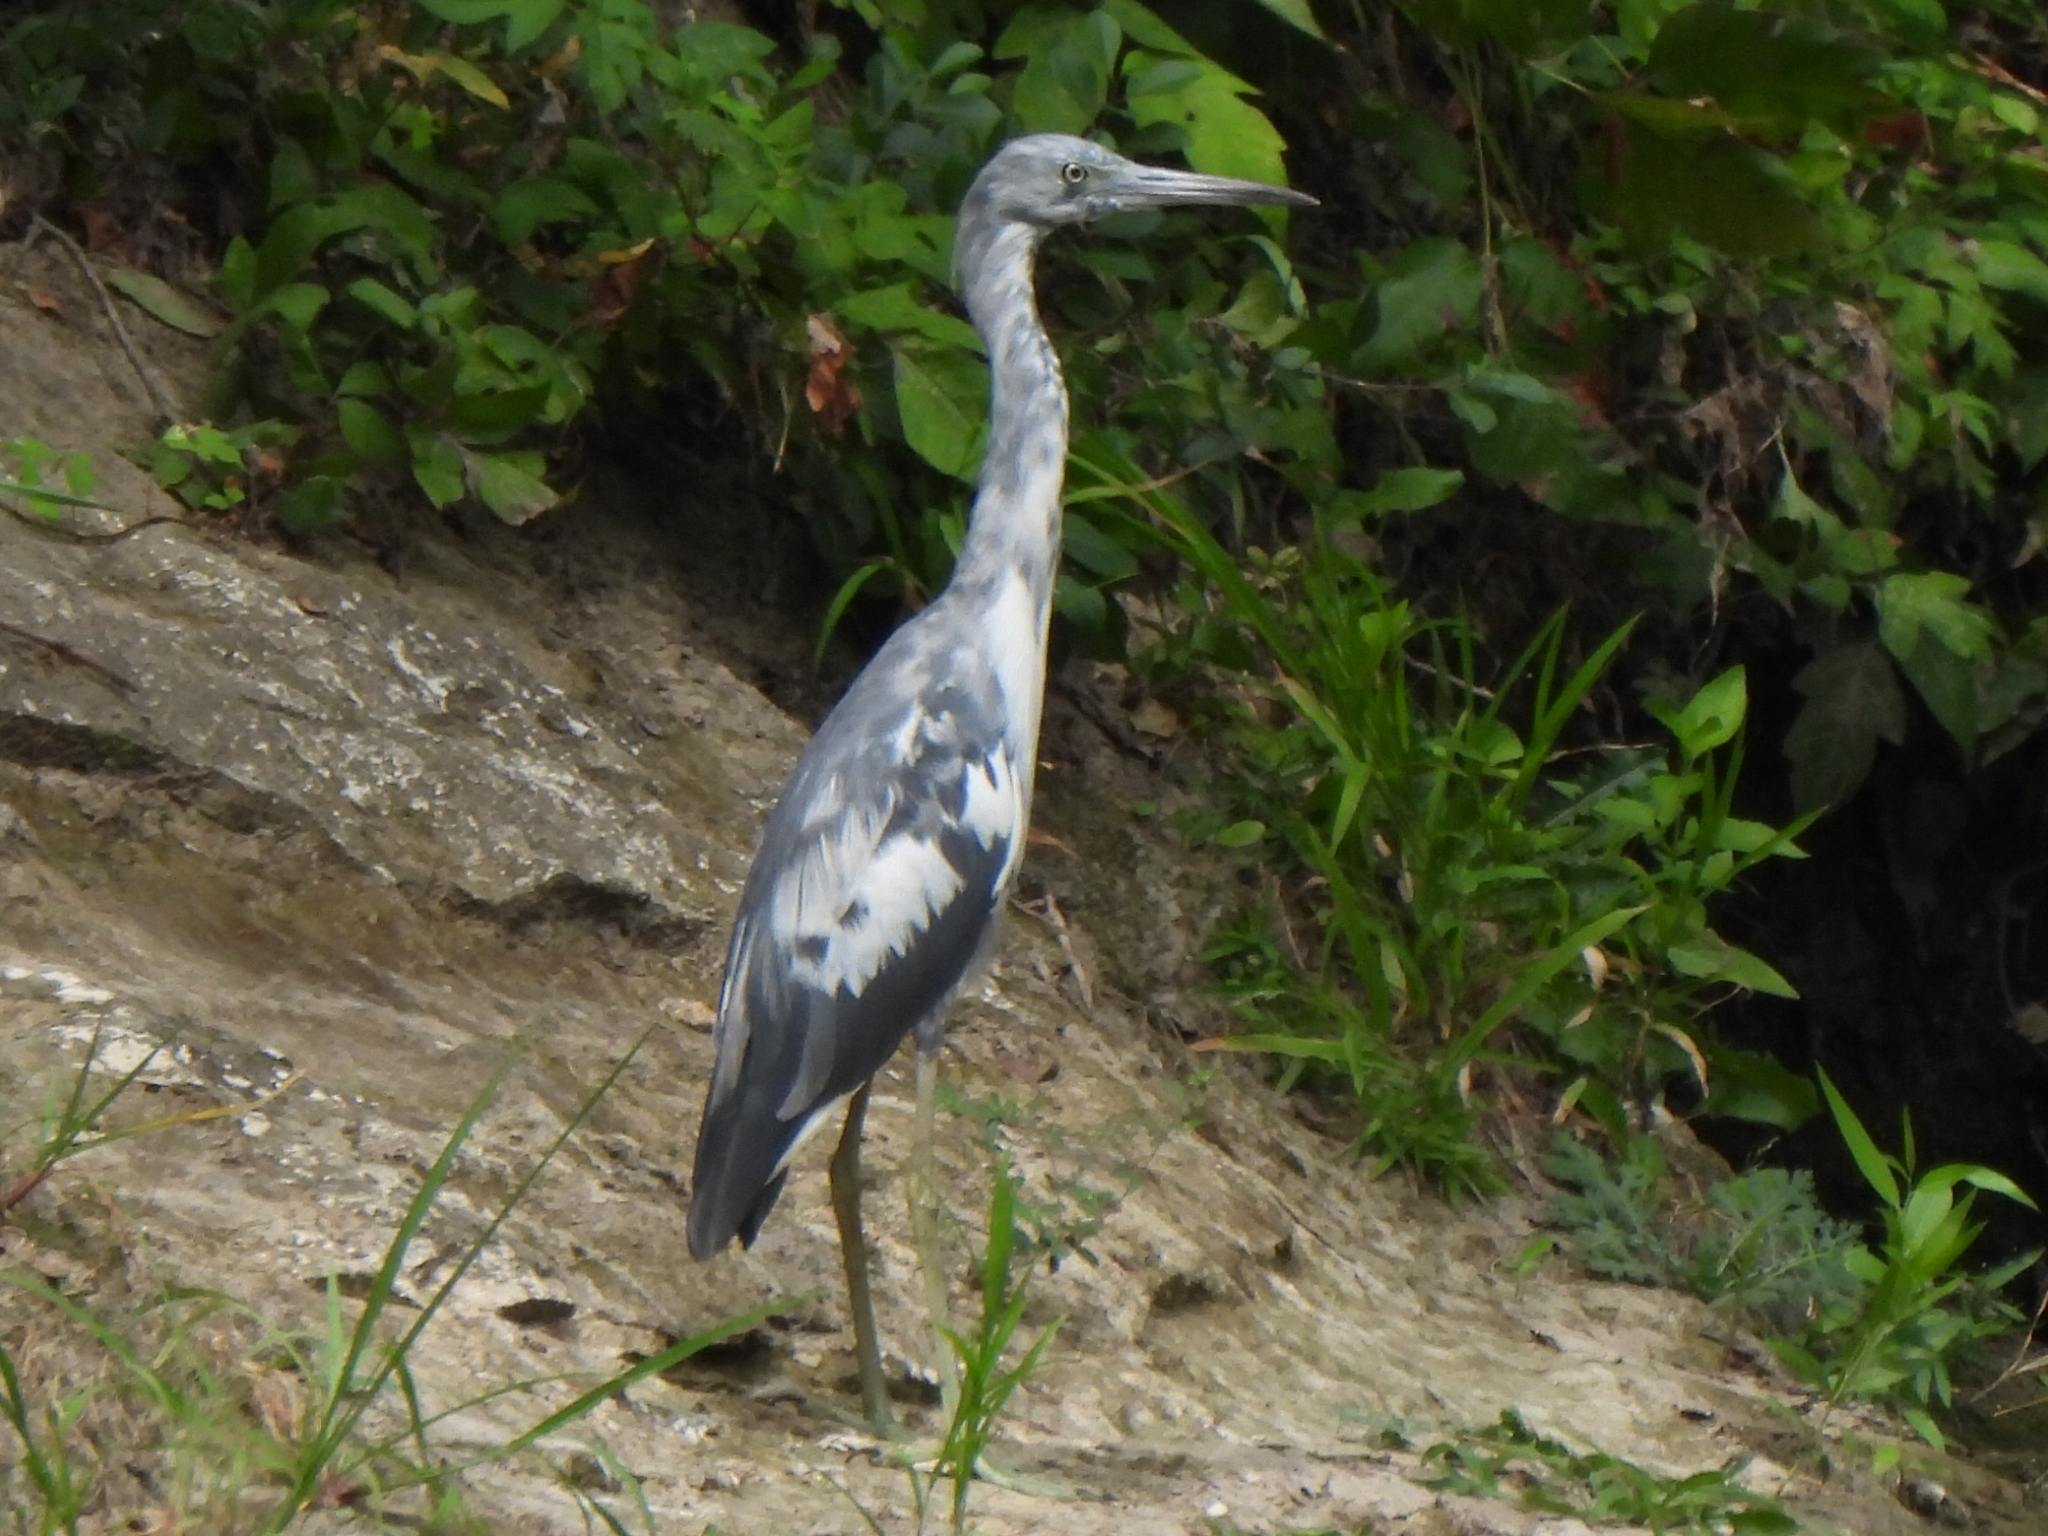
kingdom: Animalia
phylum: Chordata
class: Aves
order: Pelecaniformes
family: Ardeidae
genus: Egretta
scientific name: Egretta caerulea
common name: Little blue heron
